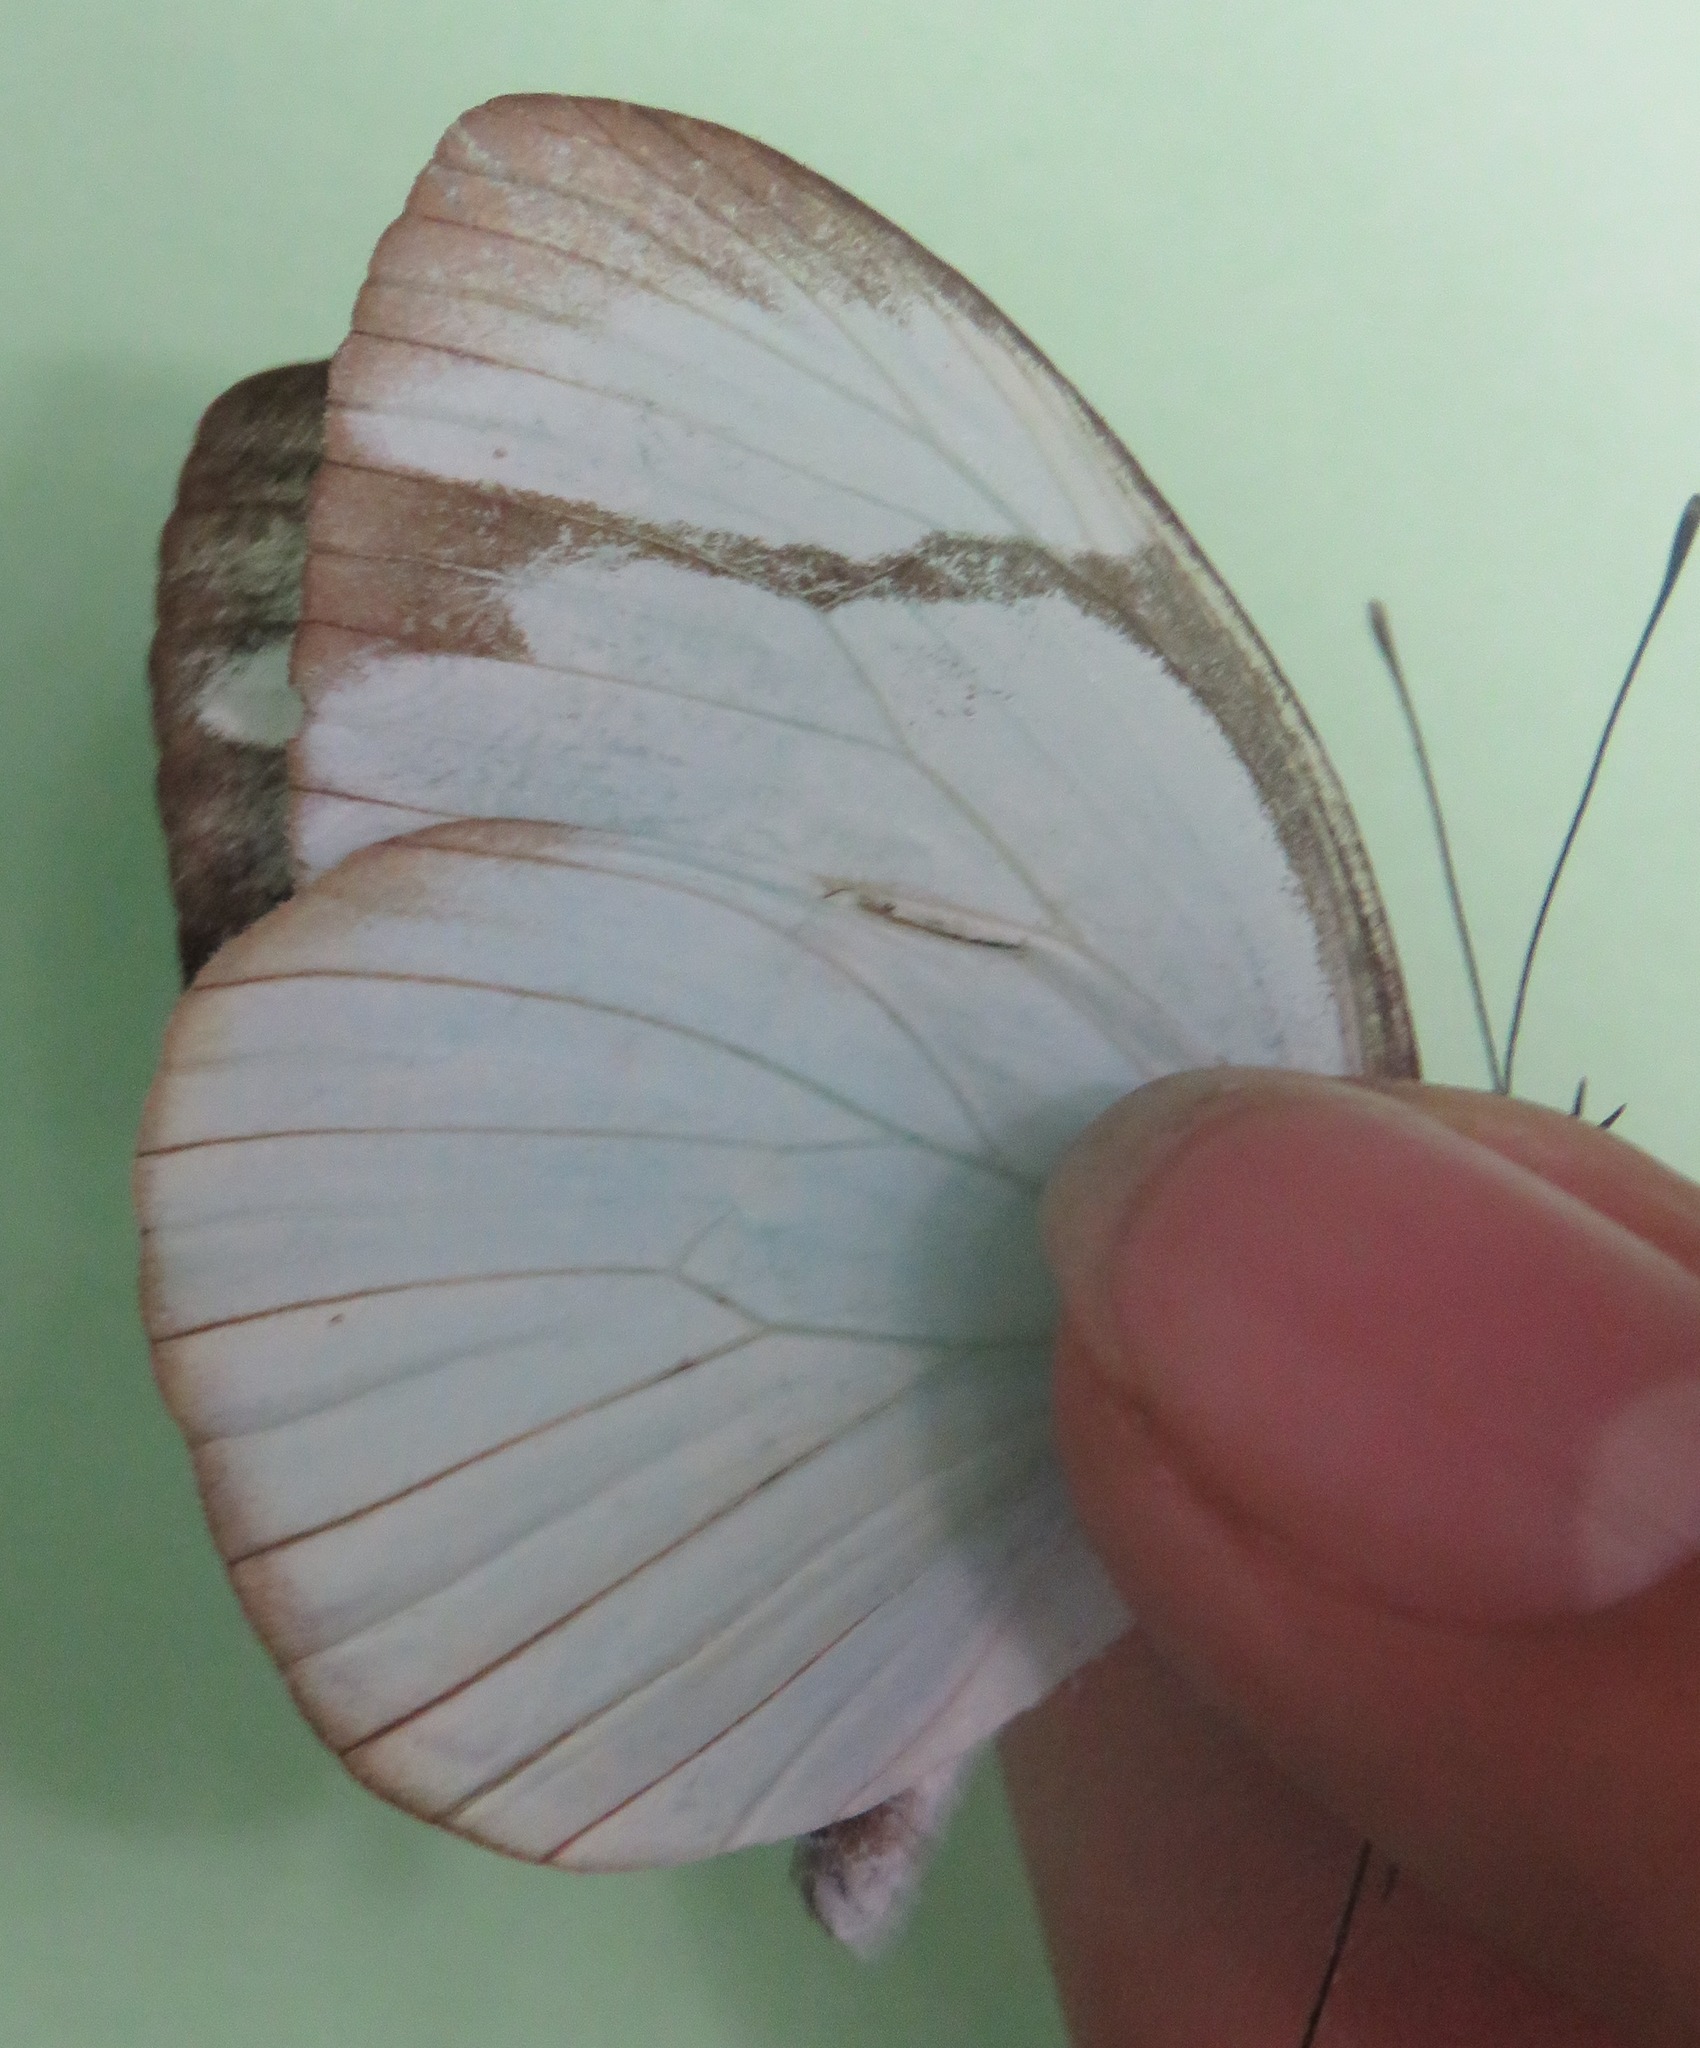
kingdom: Animalia
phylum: Arthropoda
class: Insecta
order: Lepidoptera
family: Pieridae
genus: Itaballia
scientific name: Itaballia demophile
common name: Cross-barred white
